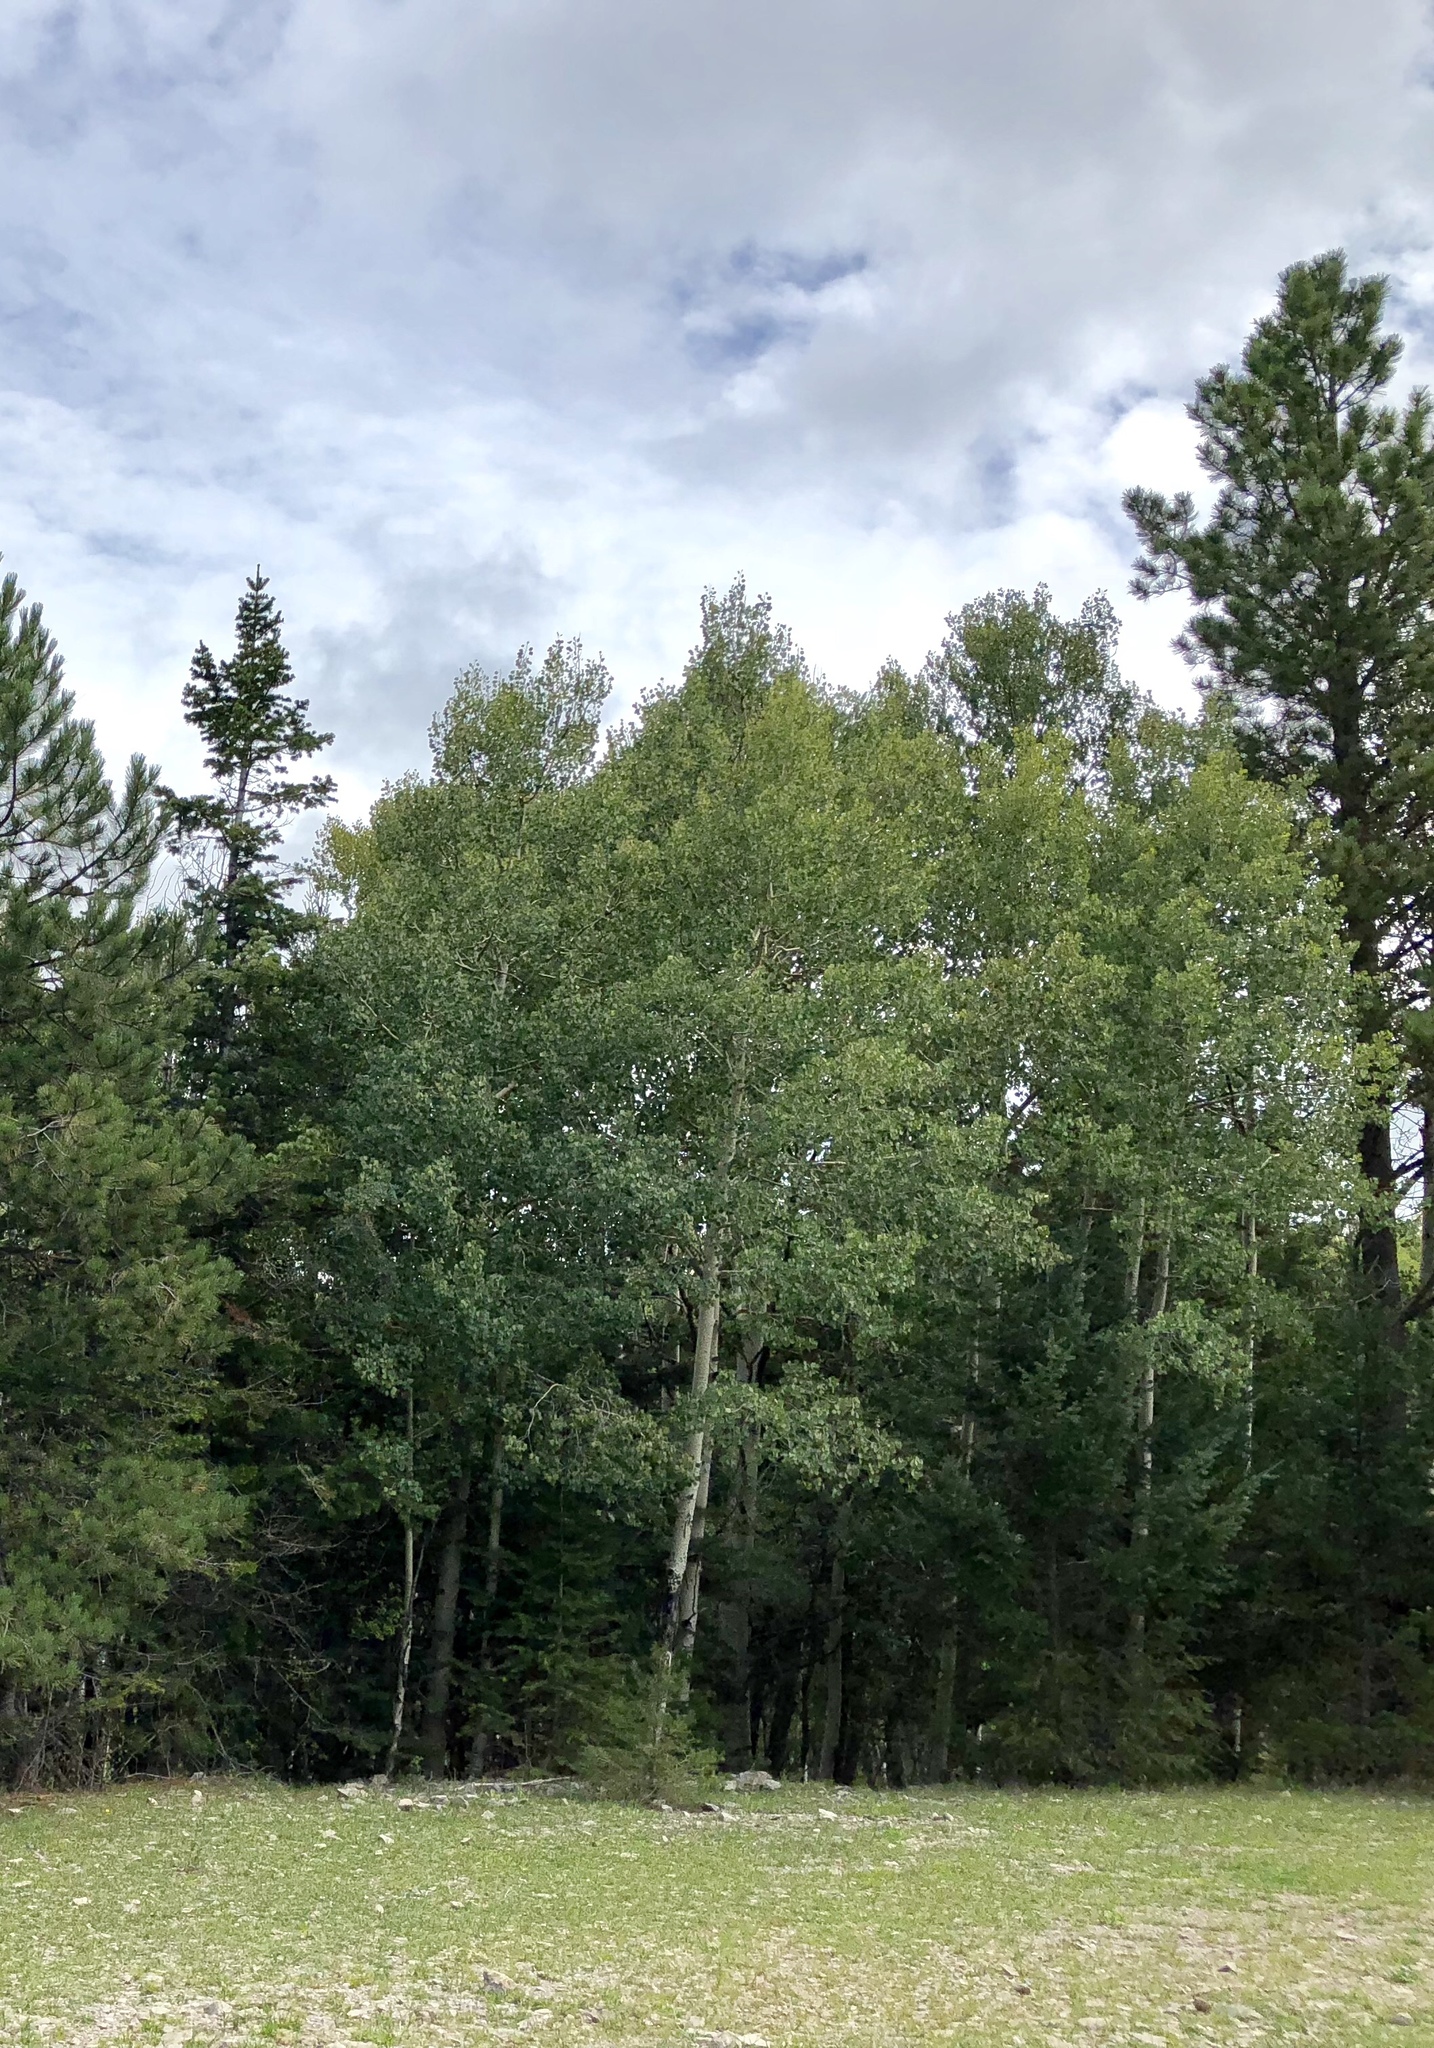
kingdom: Plantae
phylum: Tracheophyta
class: Magnoliopsida
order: Malpighiales
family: Salicaceae
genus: Populus
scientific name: Populus tremuloides
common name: Quaking aspen
